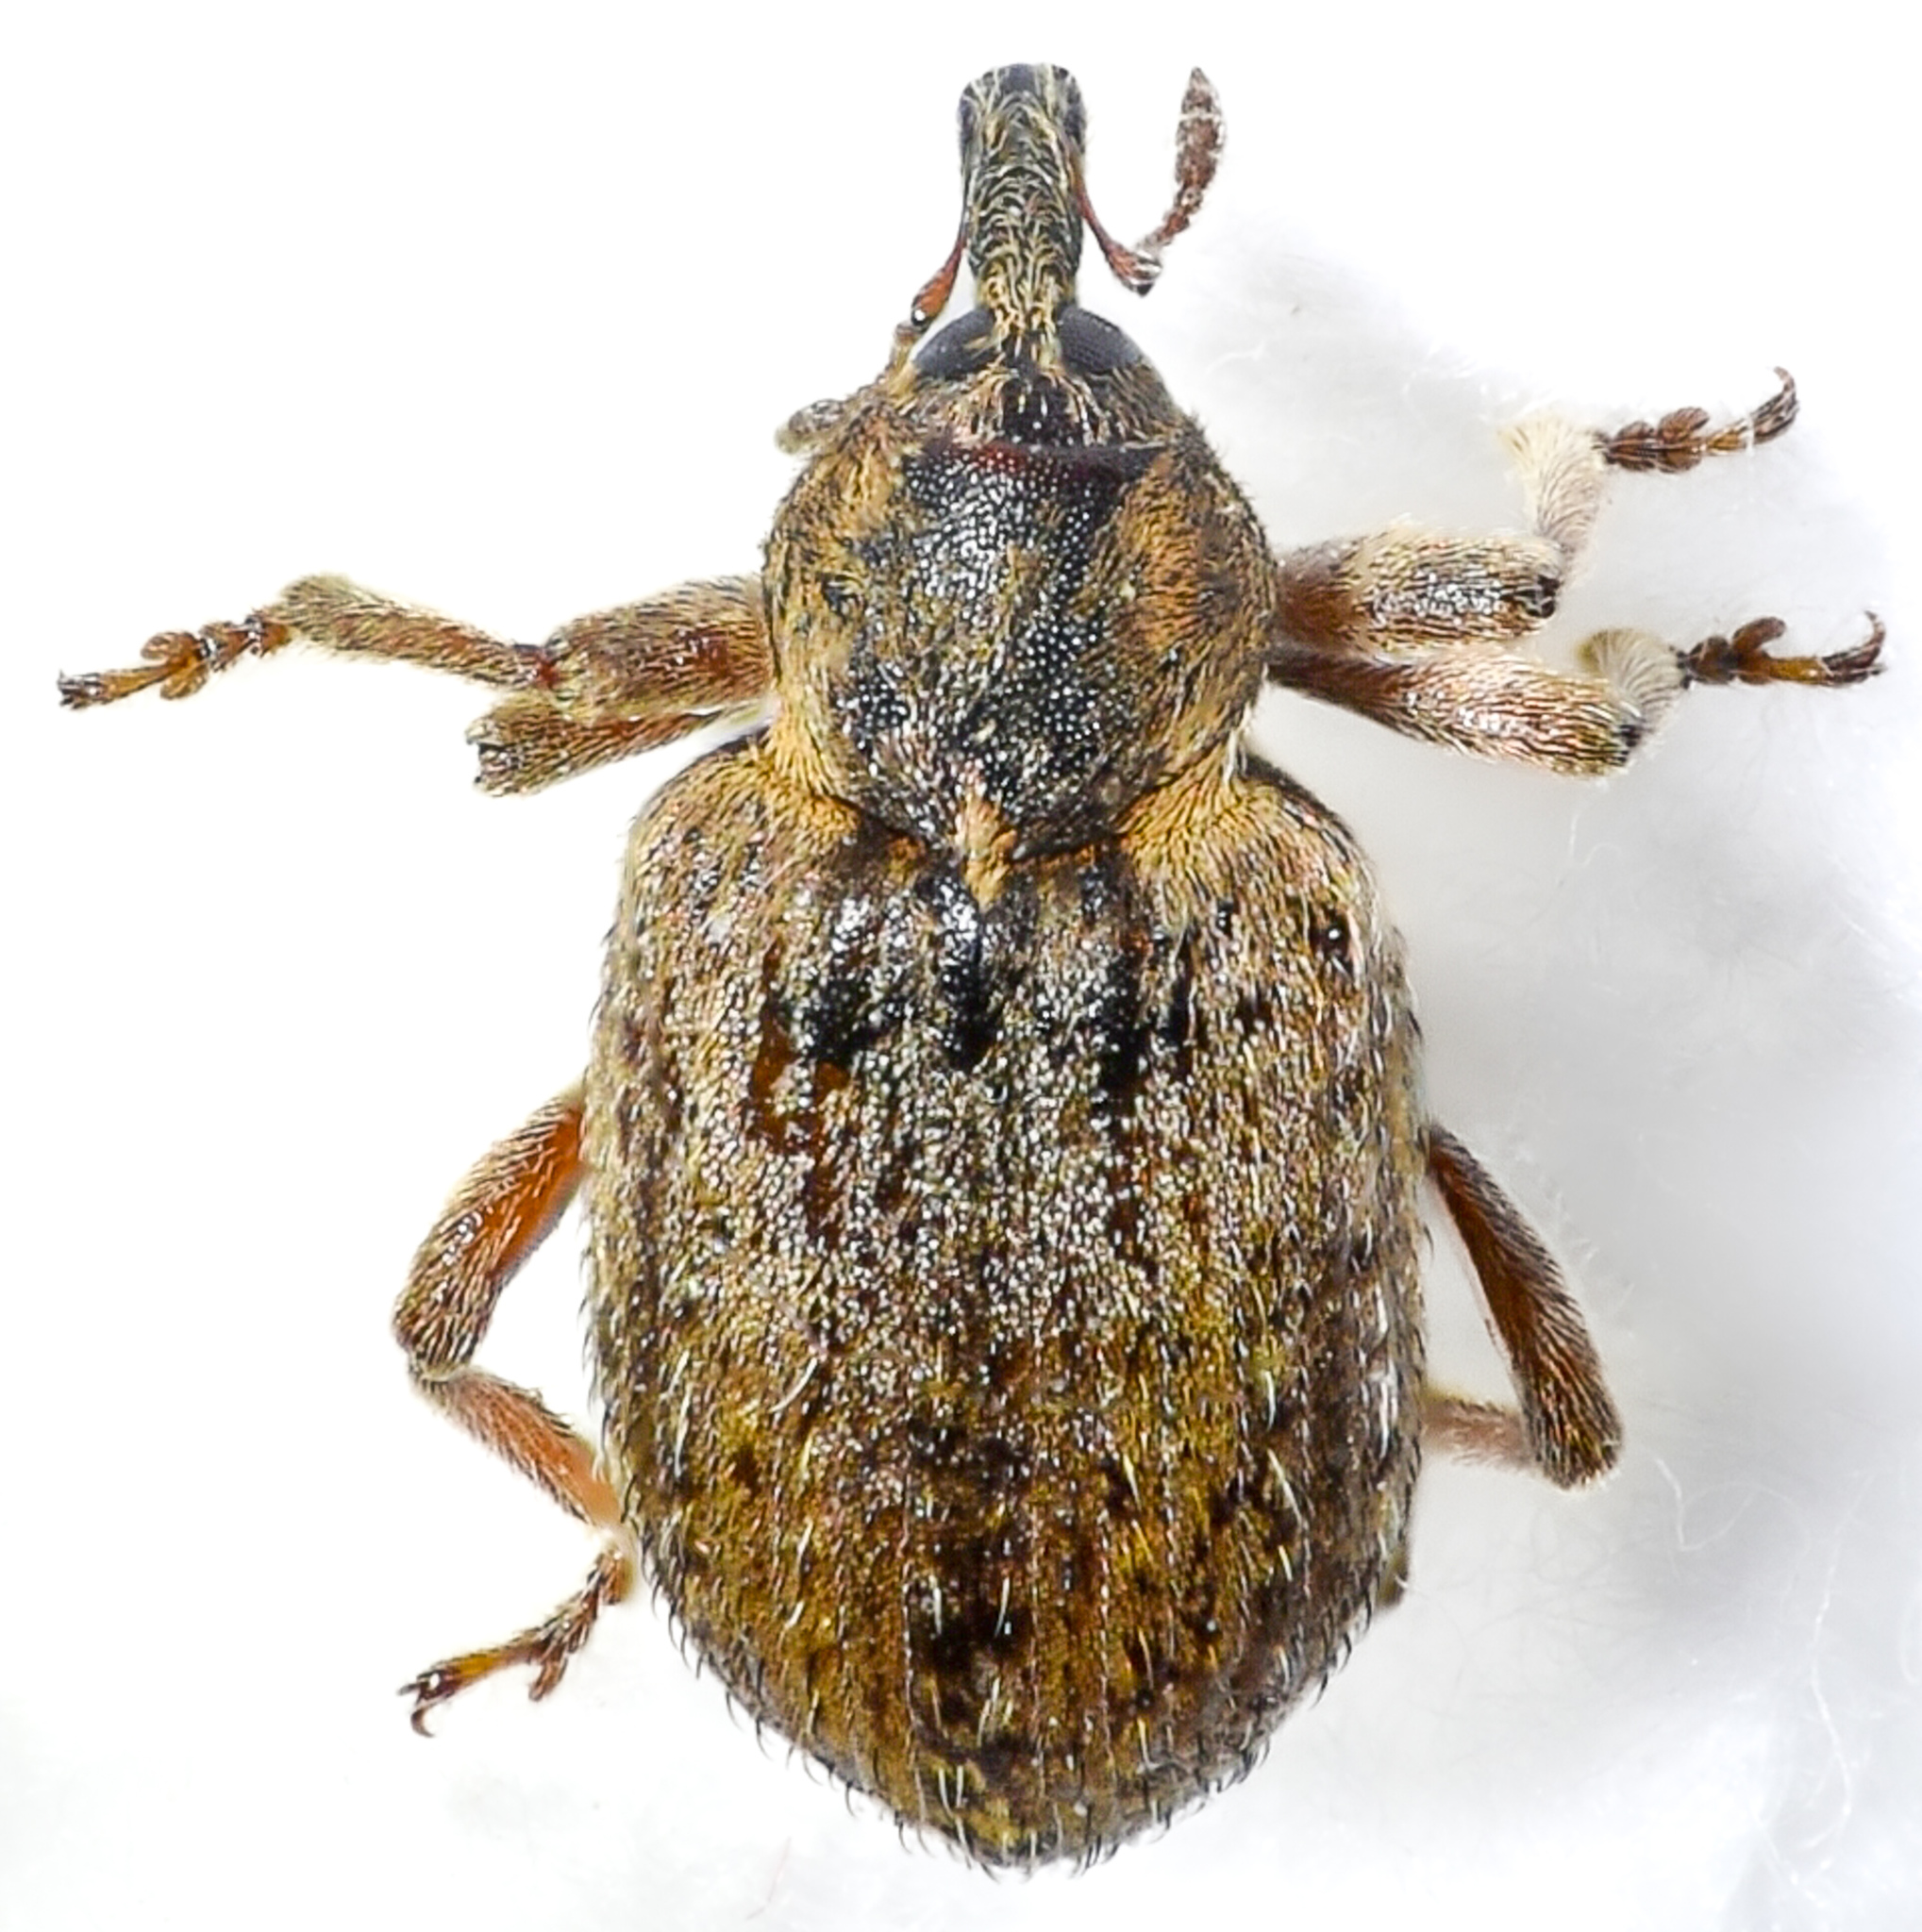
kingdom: Animalia
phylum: Arthropoda
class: Insecta
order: Coleoptera
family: Curculionidae
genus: Hypera
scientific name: Hypera postica
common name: Weevil
